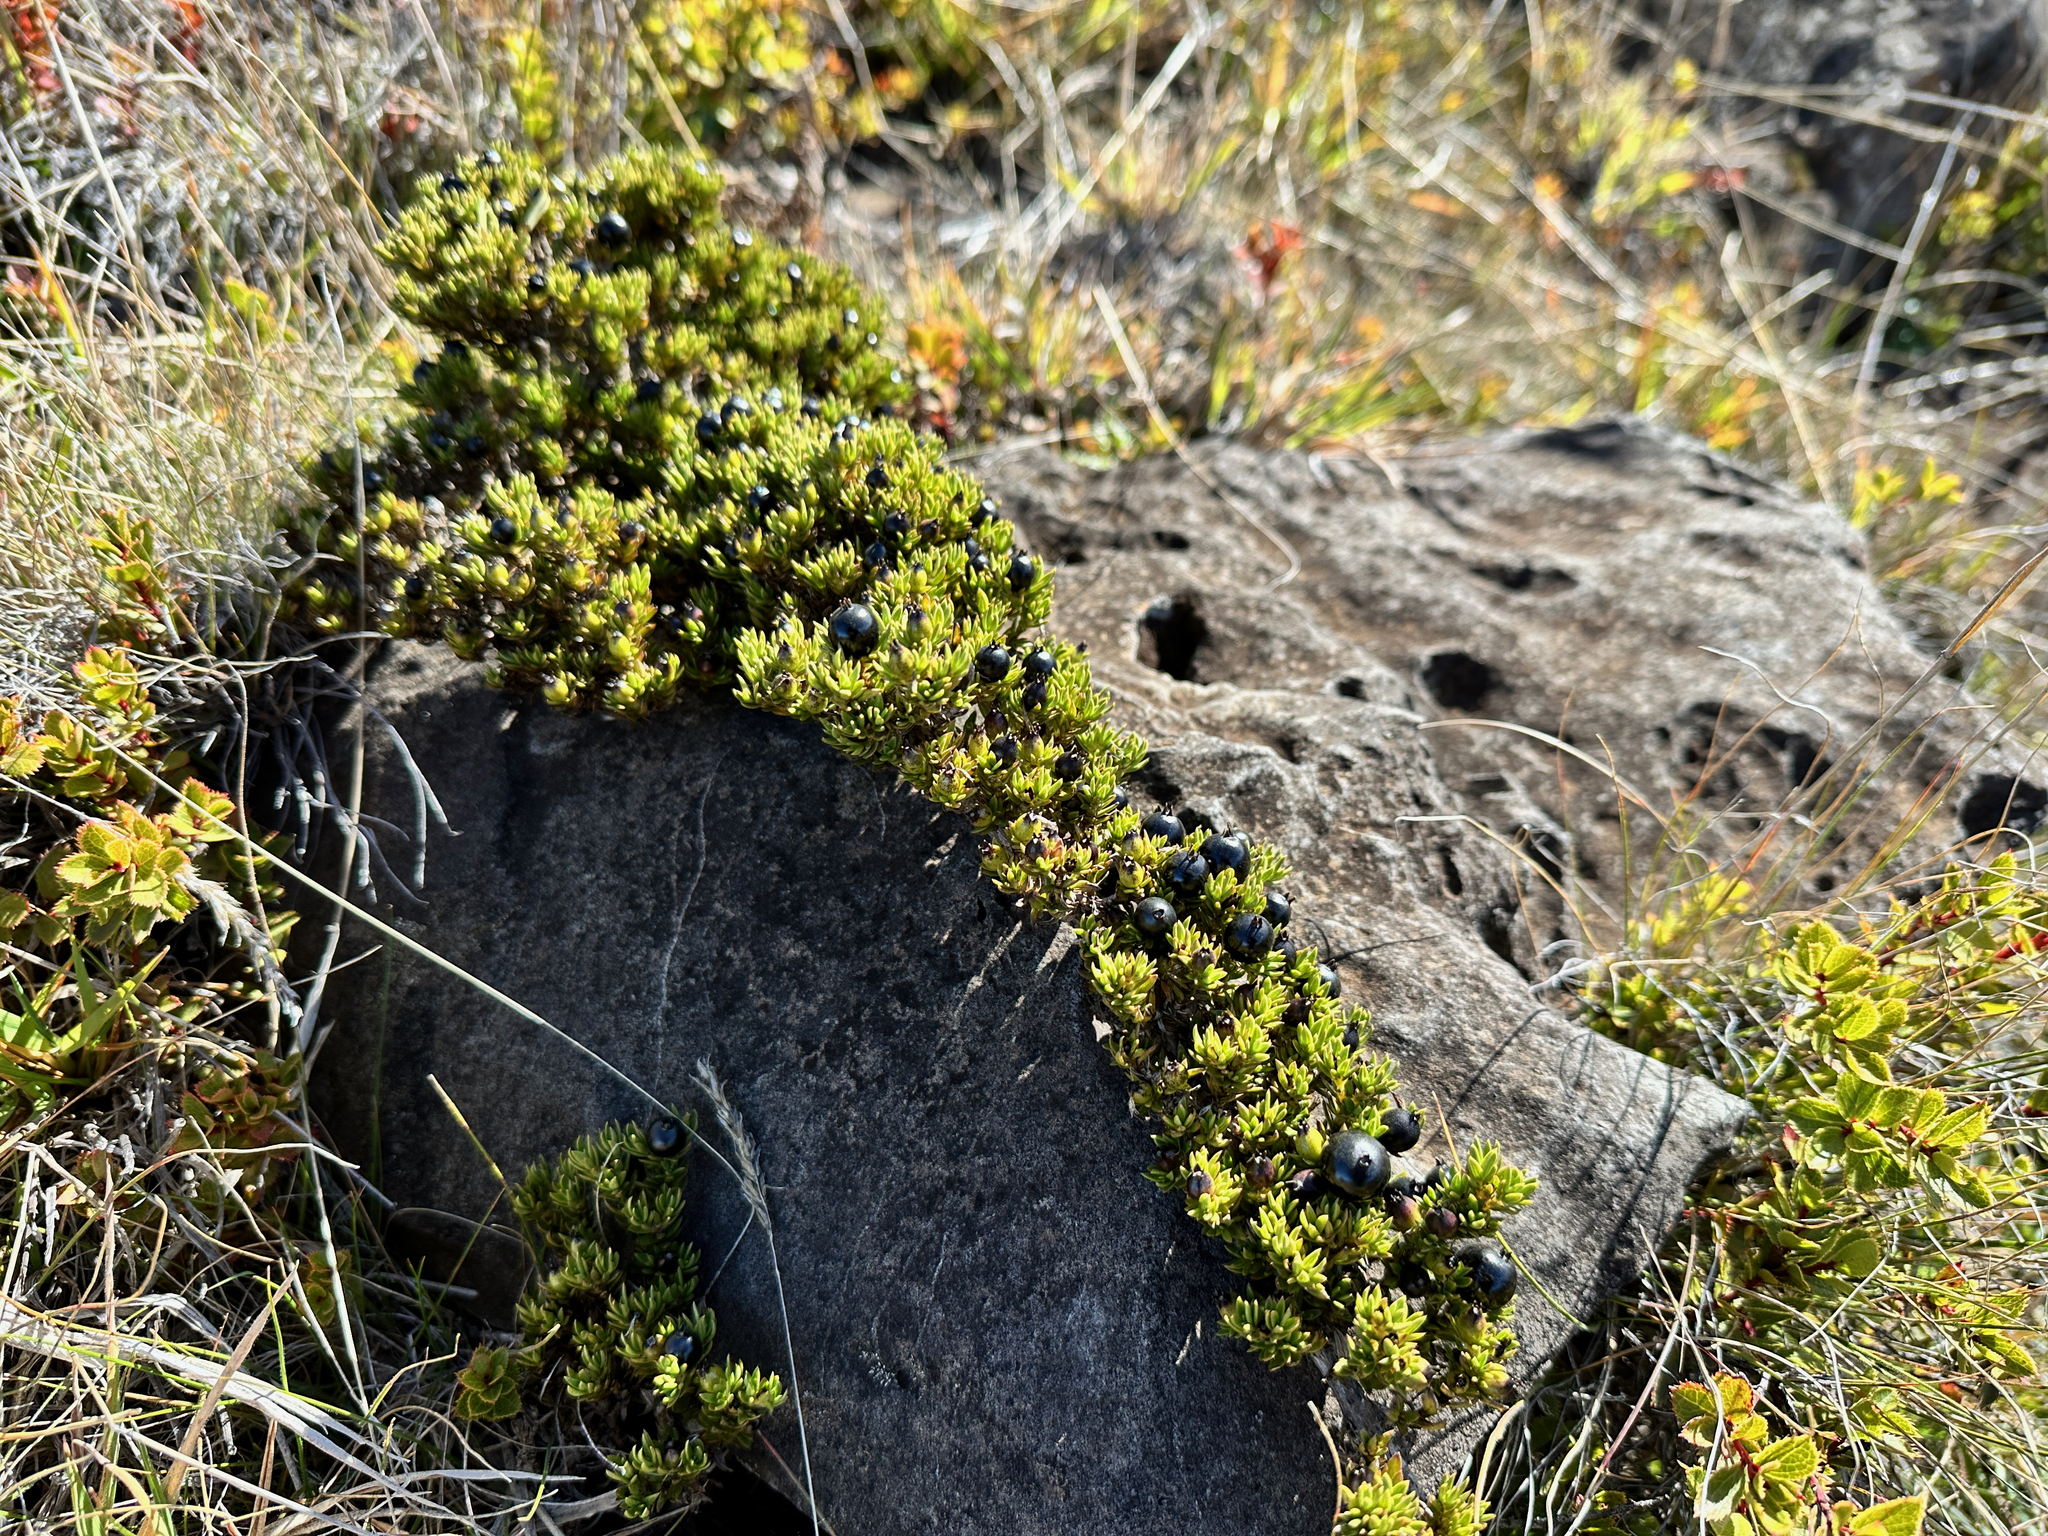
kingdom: Plantae
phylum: Tracheophyta
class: Magnoliopsida
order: Gentianales
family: Rubiaceae
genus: Coprosma
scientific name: Coprosma ernodeoides
